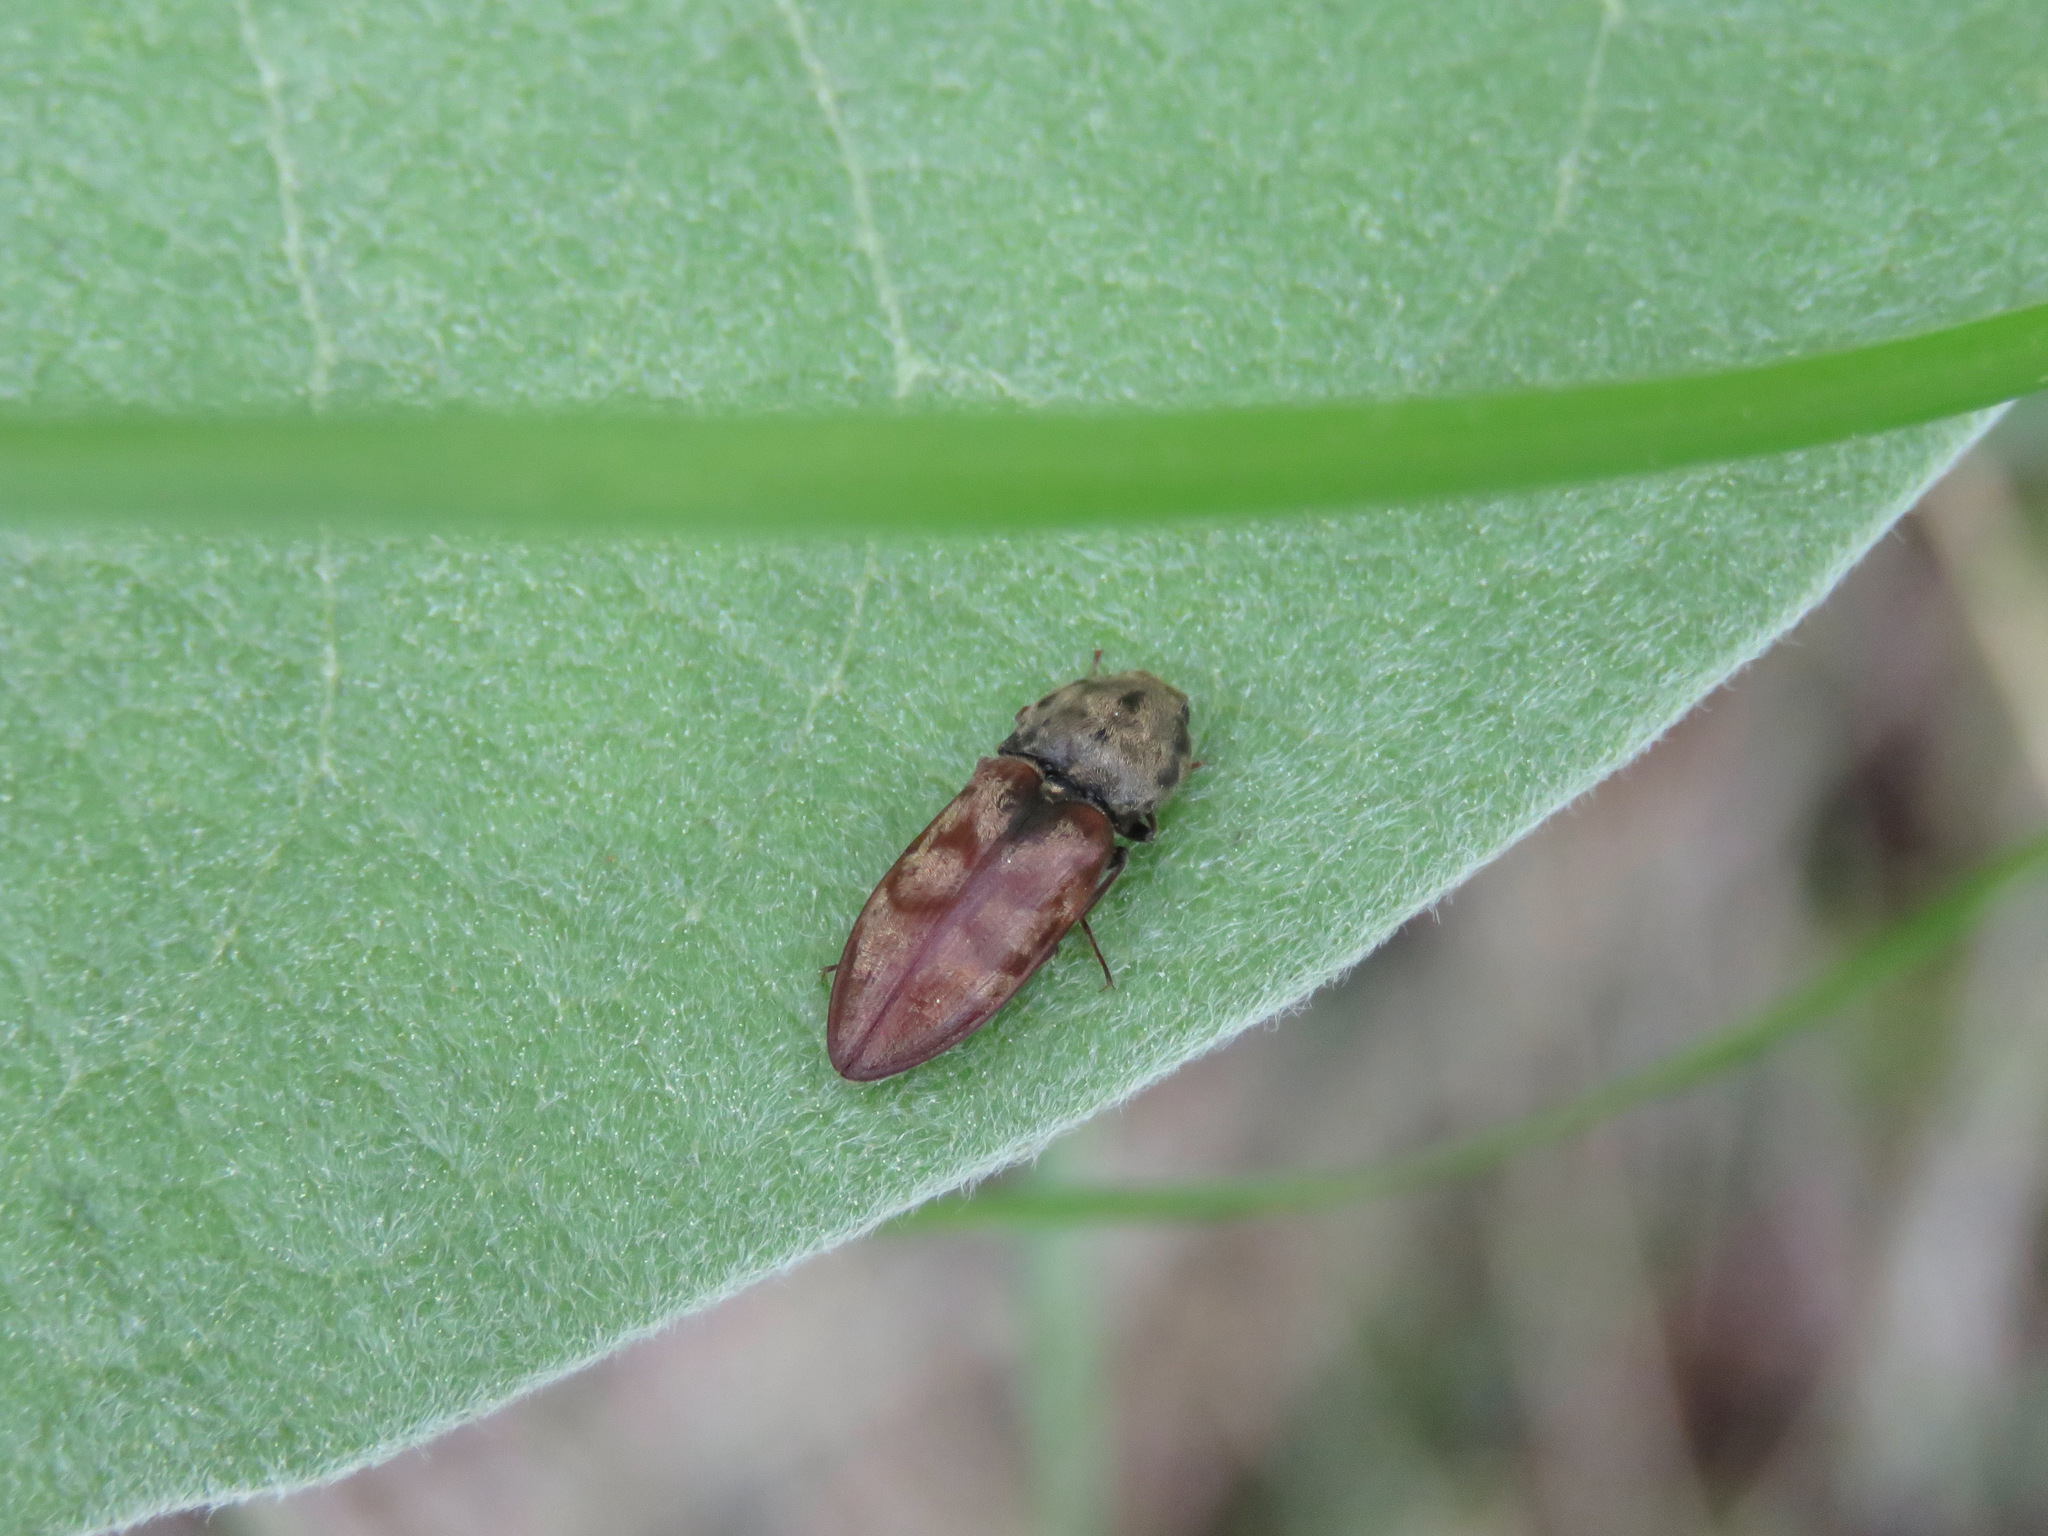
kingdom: Animalia
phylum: Arthropoda
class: Insecta
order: Coleoptera
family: Elateridae
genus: Prosternon
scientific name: Prosternon bombycinum
